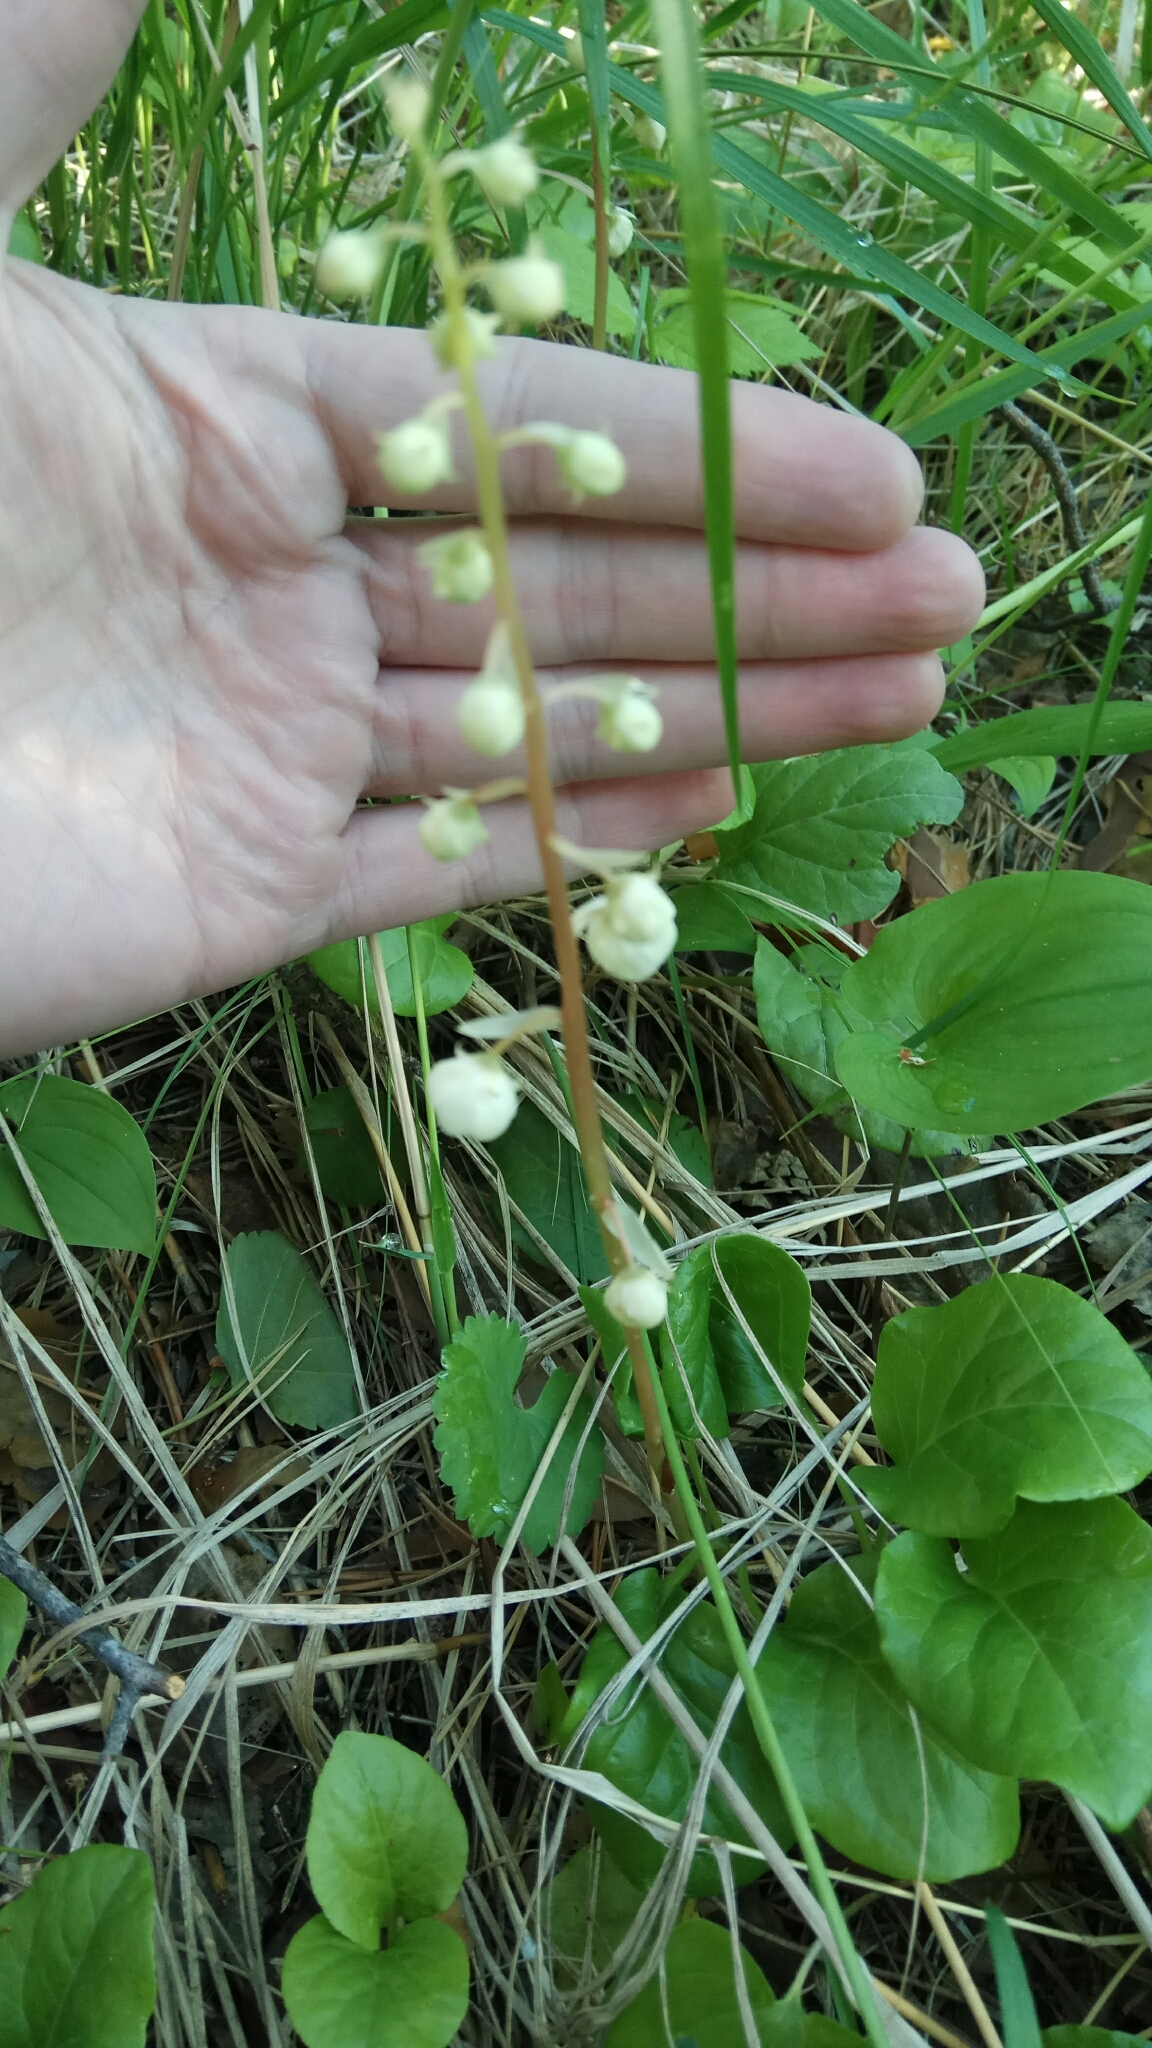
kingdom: Plantae
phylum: Tracheophyta
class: Magnoliopsida
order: Ericales
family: Ericaceae
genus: Pyrola
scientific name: Pyrola rotundifolia
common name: Round-leaved wintergreen
